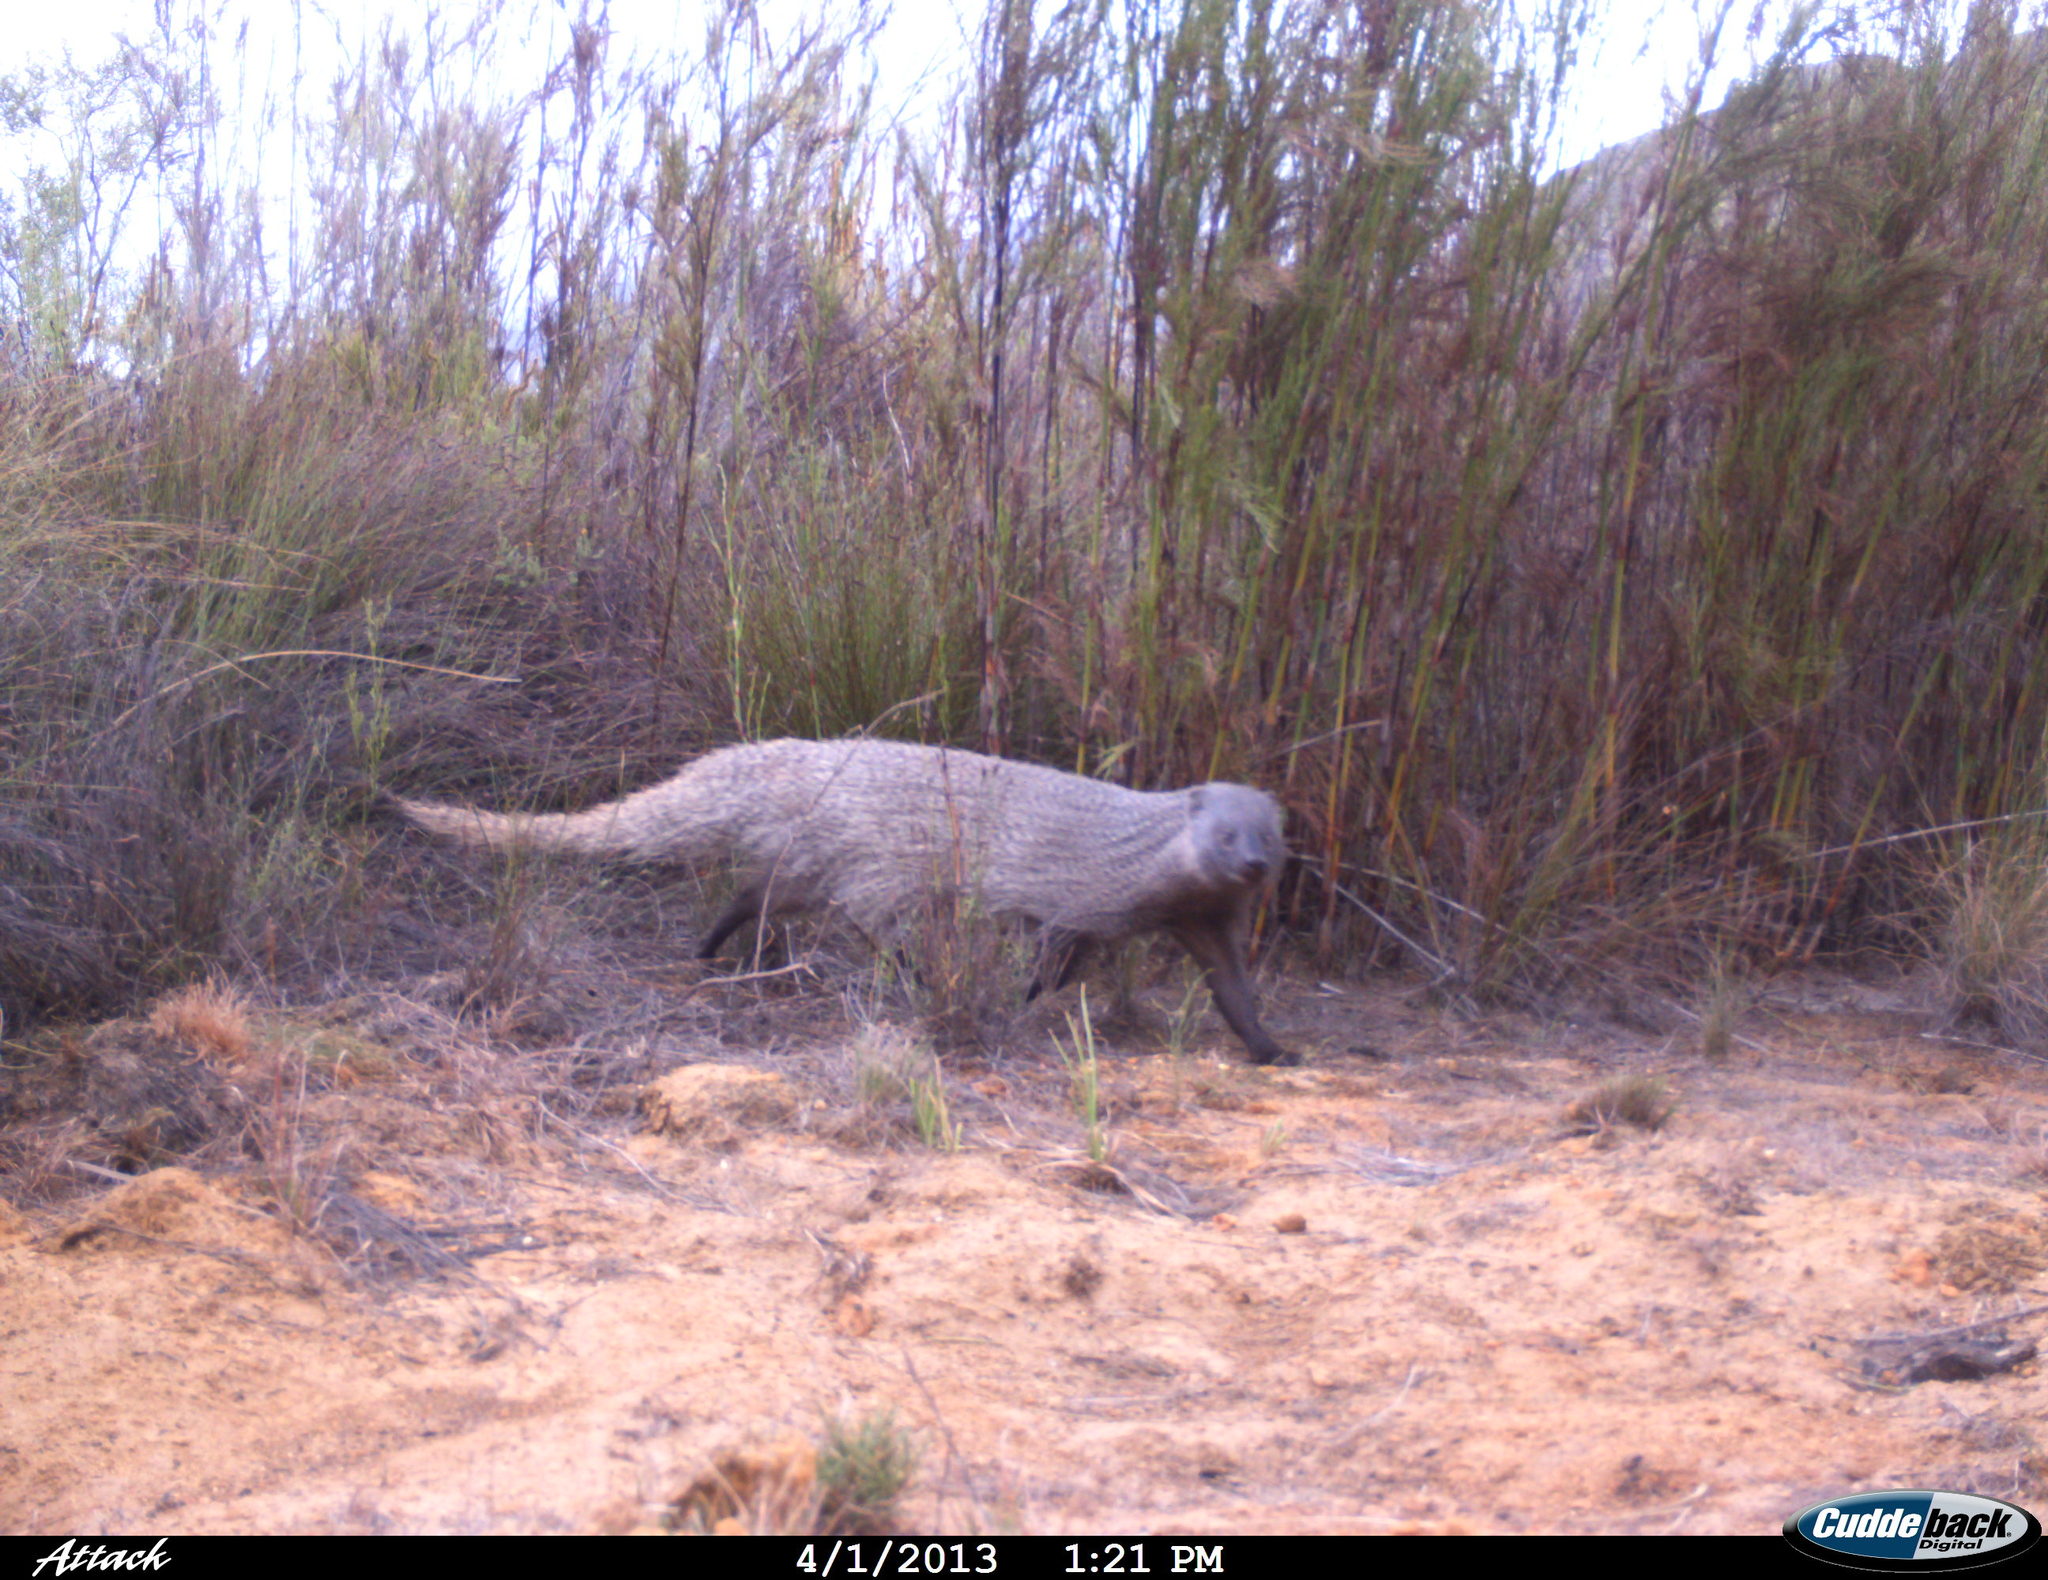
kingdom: Animalia
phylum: Chordata
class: Mammalia
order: Carnivora
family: Herpestidae
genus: Herpestes
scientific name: Herpestes ichneumon
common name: Egyptian mongoose
